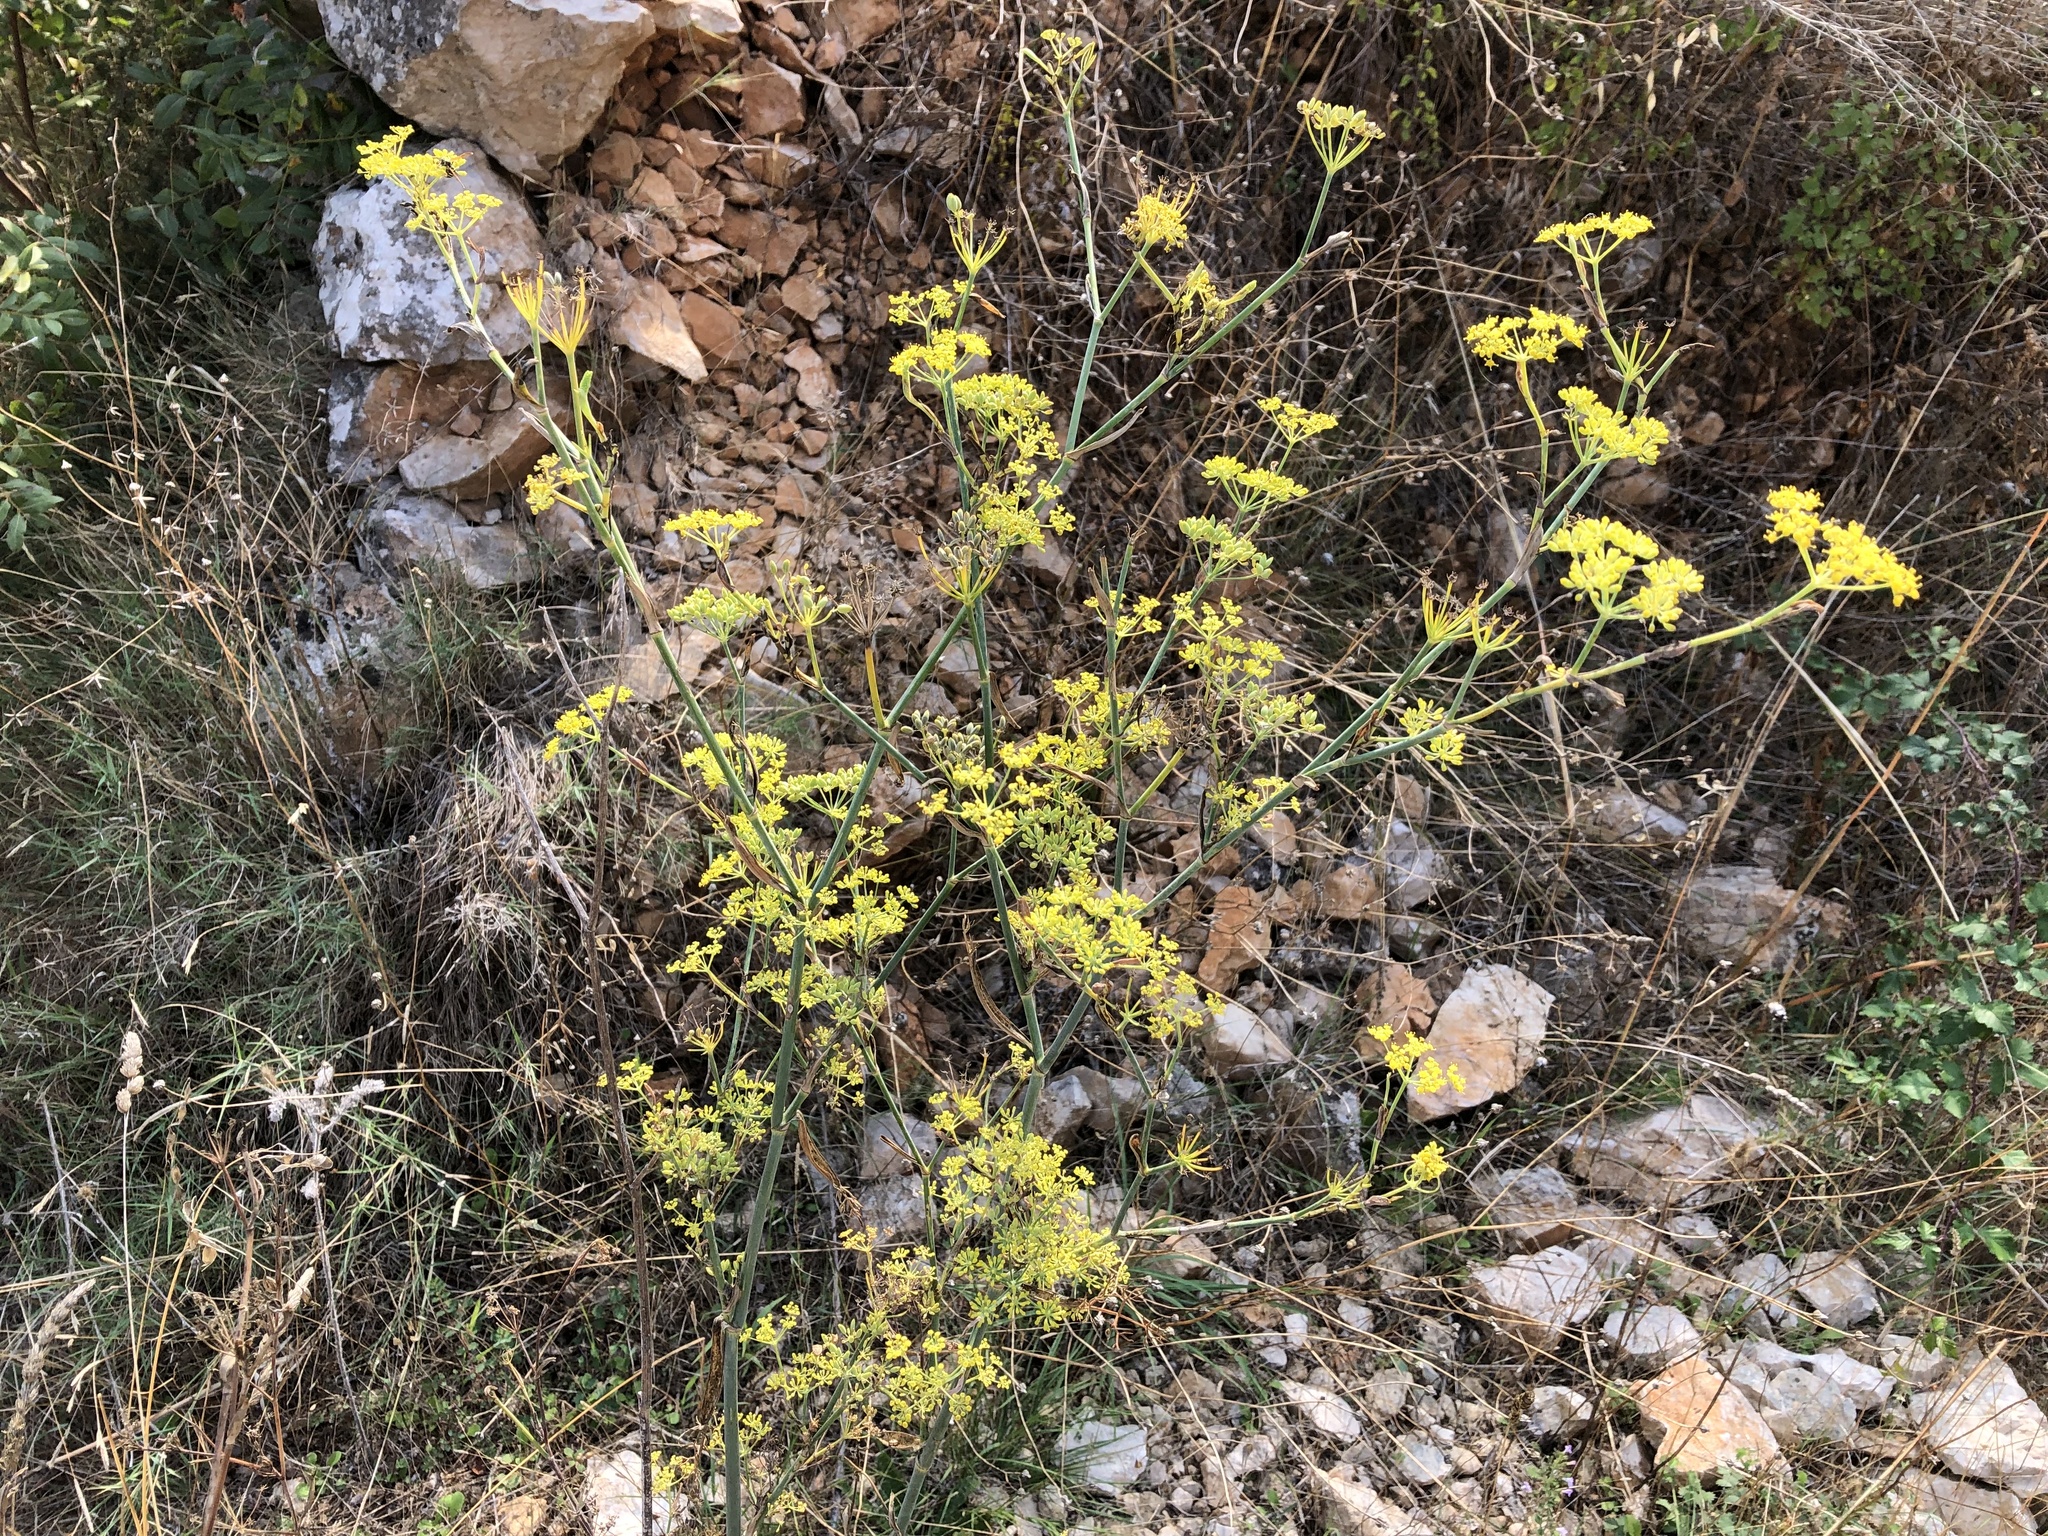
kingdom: Plantae
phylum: Tracheophyta
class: Magnoliopsida
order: Apiales
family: Apiaceae
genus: Foeniculum
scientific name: Foeniculum vulgare
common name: Fennel
